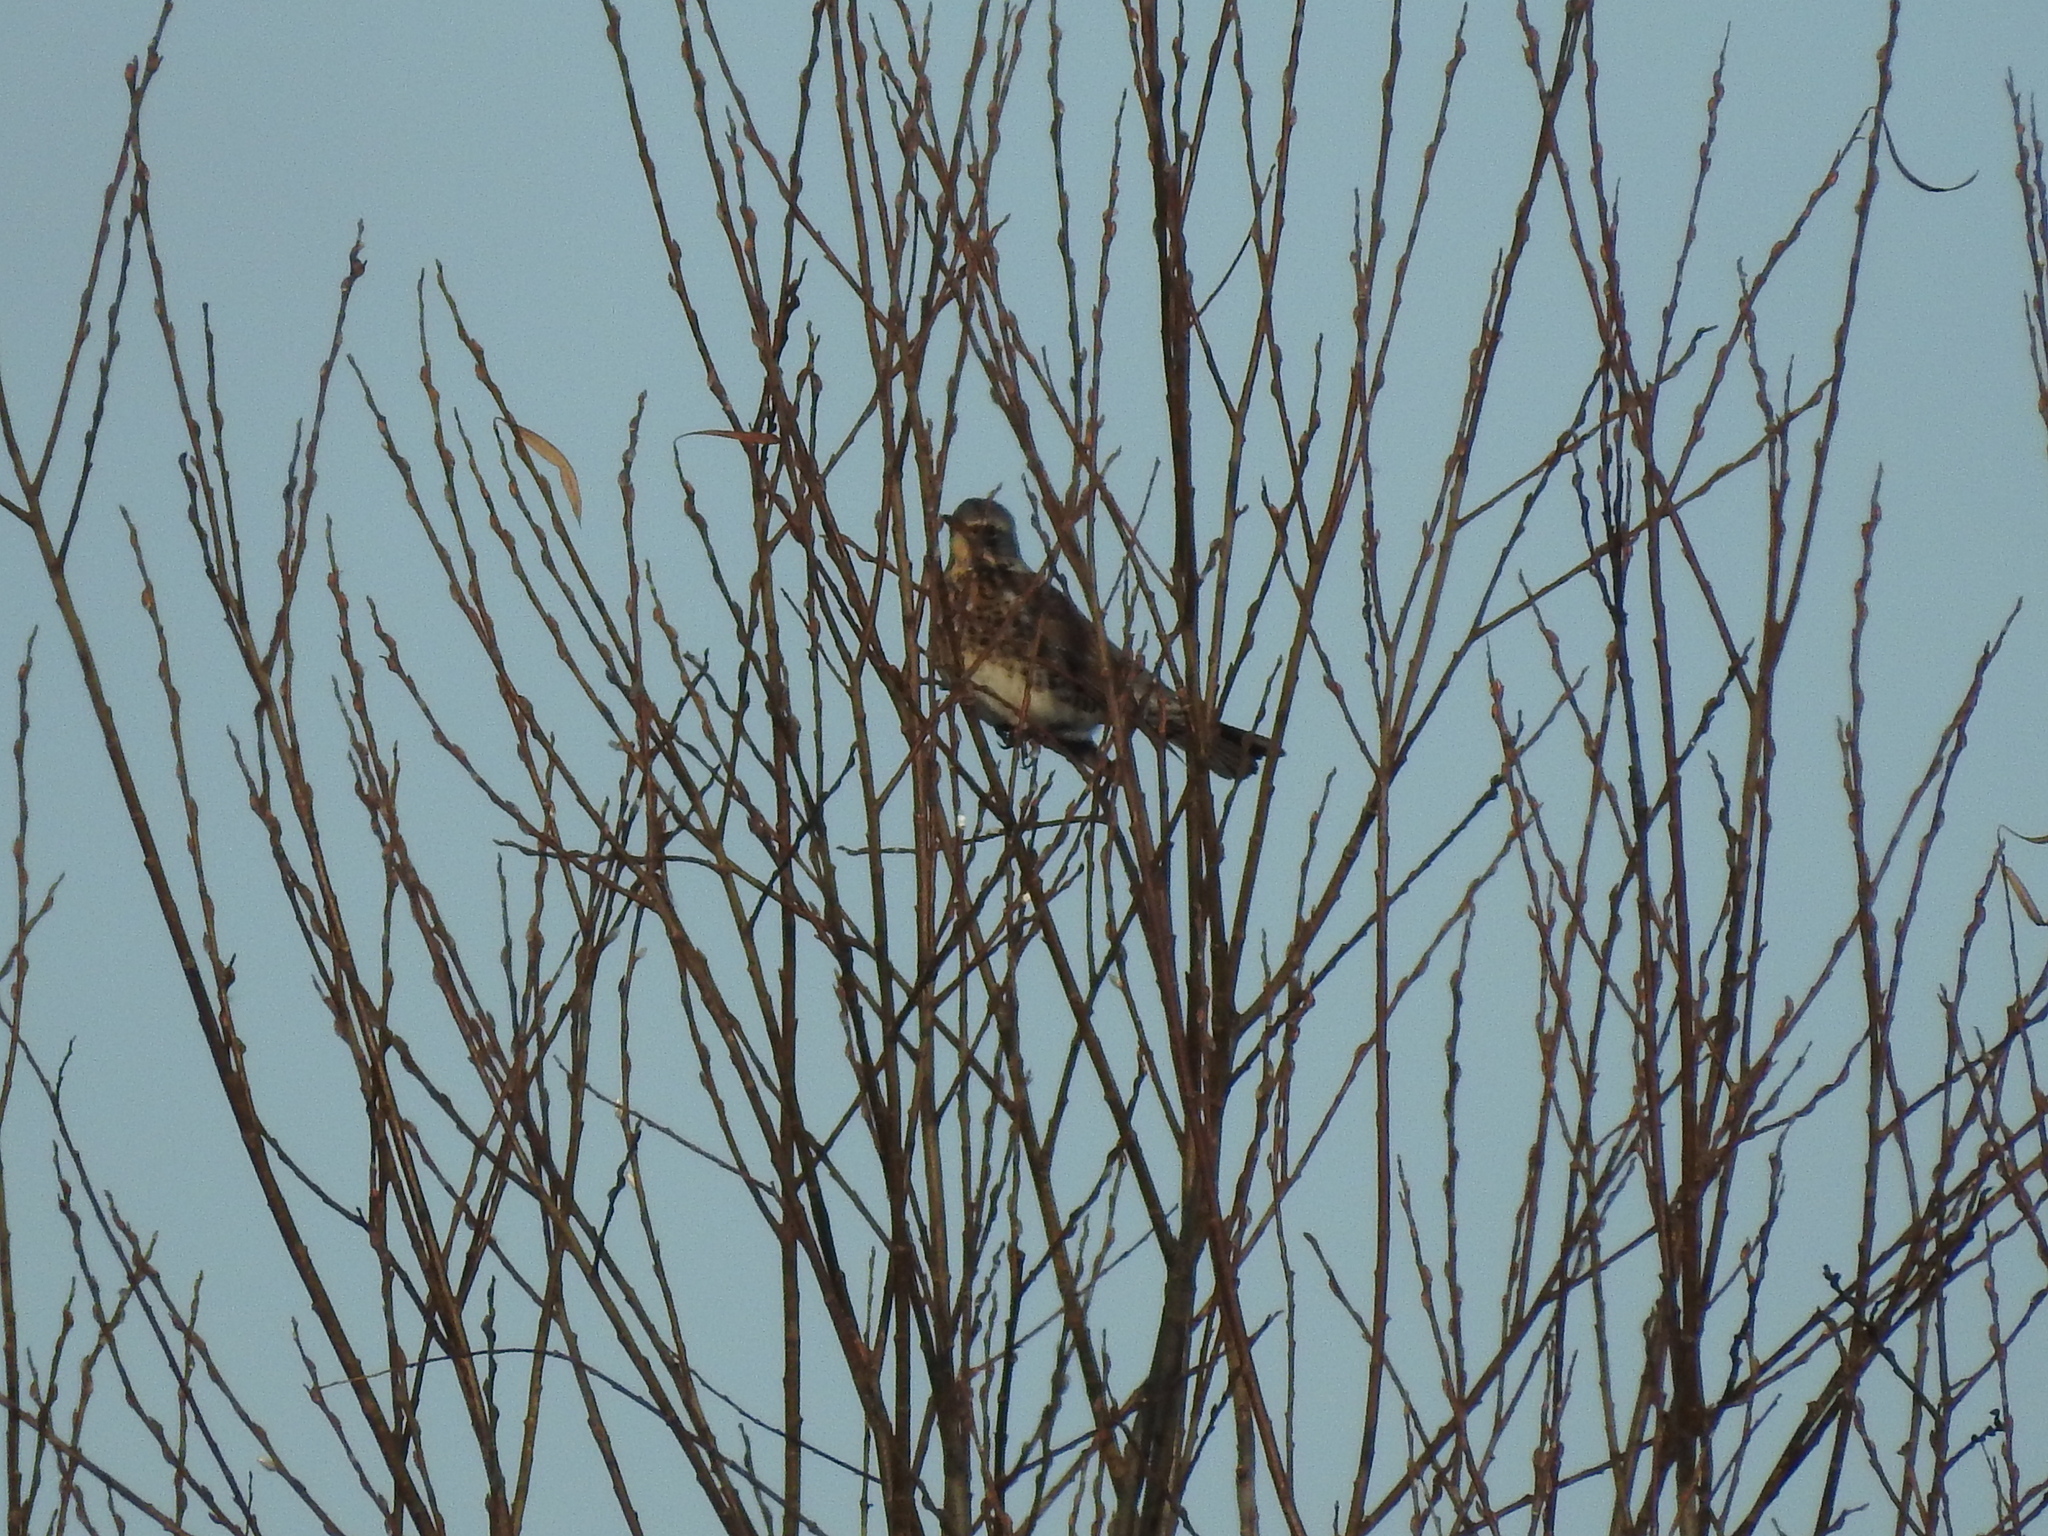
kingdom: Animalia
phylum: Chordata
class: Aves
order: Passeriformes
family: Turdidae
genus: Turdus
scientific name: Turdus pilaris
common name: Fieldfare
